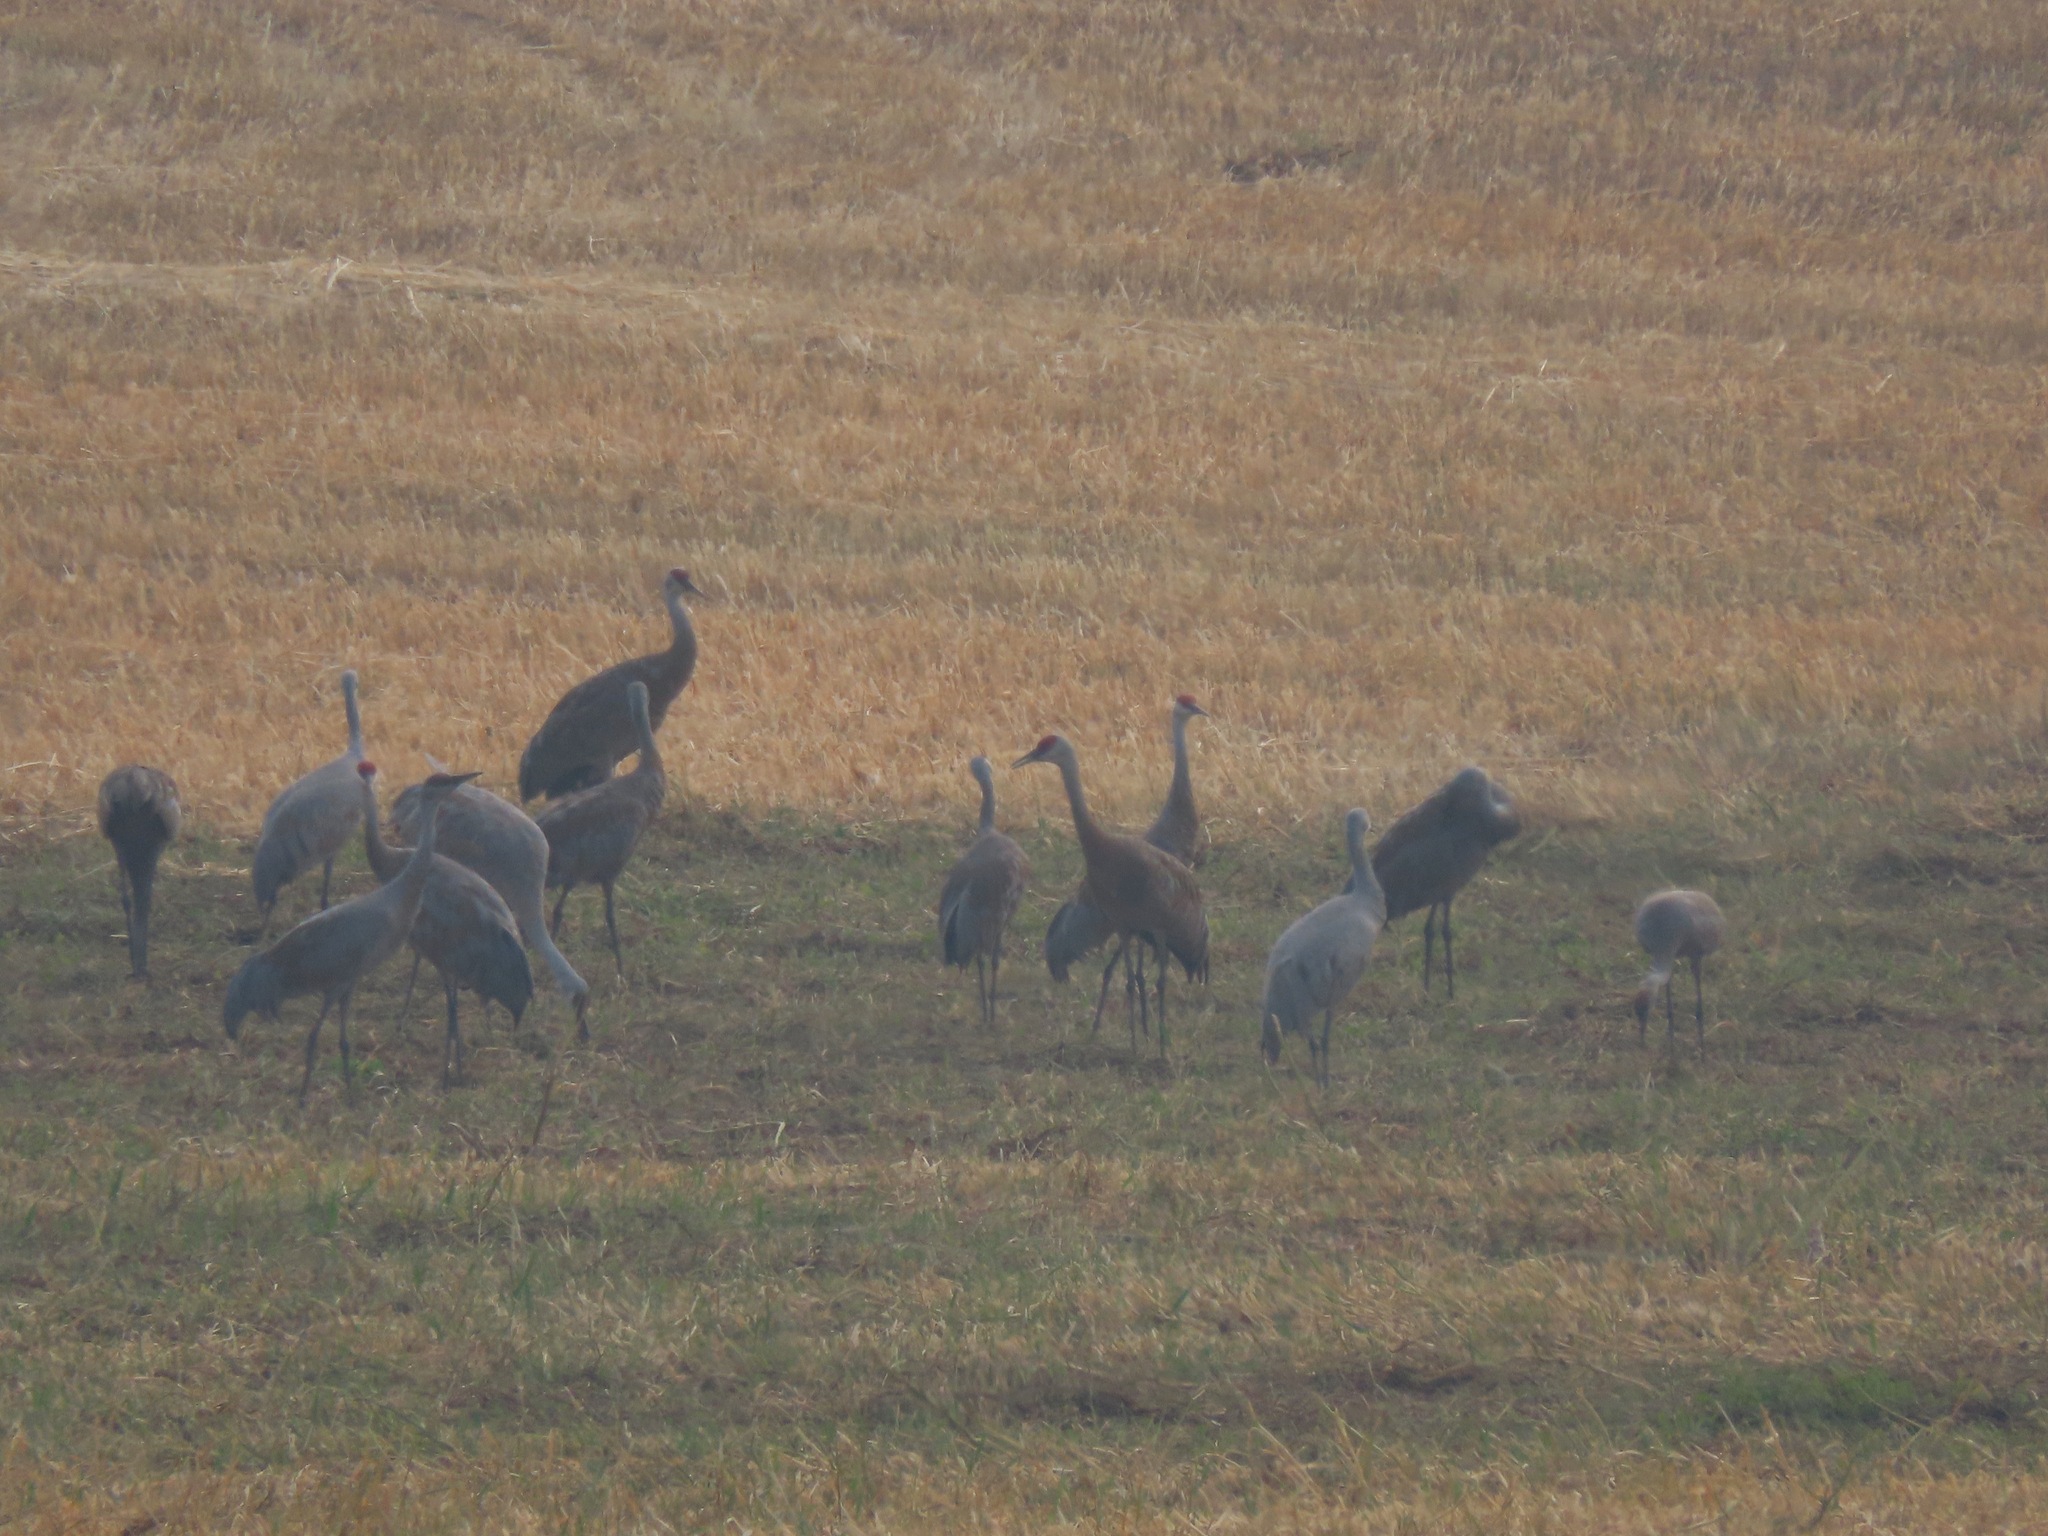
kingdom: Animalia
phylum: Chordata
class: Aves
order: Gruiformes
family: Gruidae
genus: Grus
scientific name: Grus canadensis
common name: Sandhill crane
